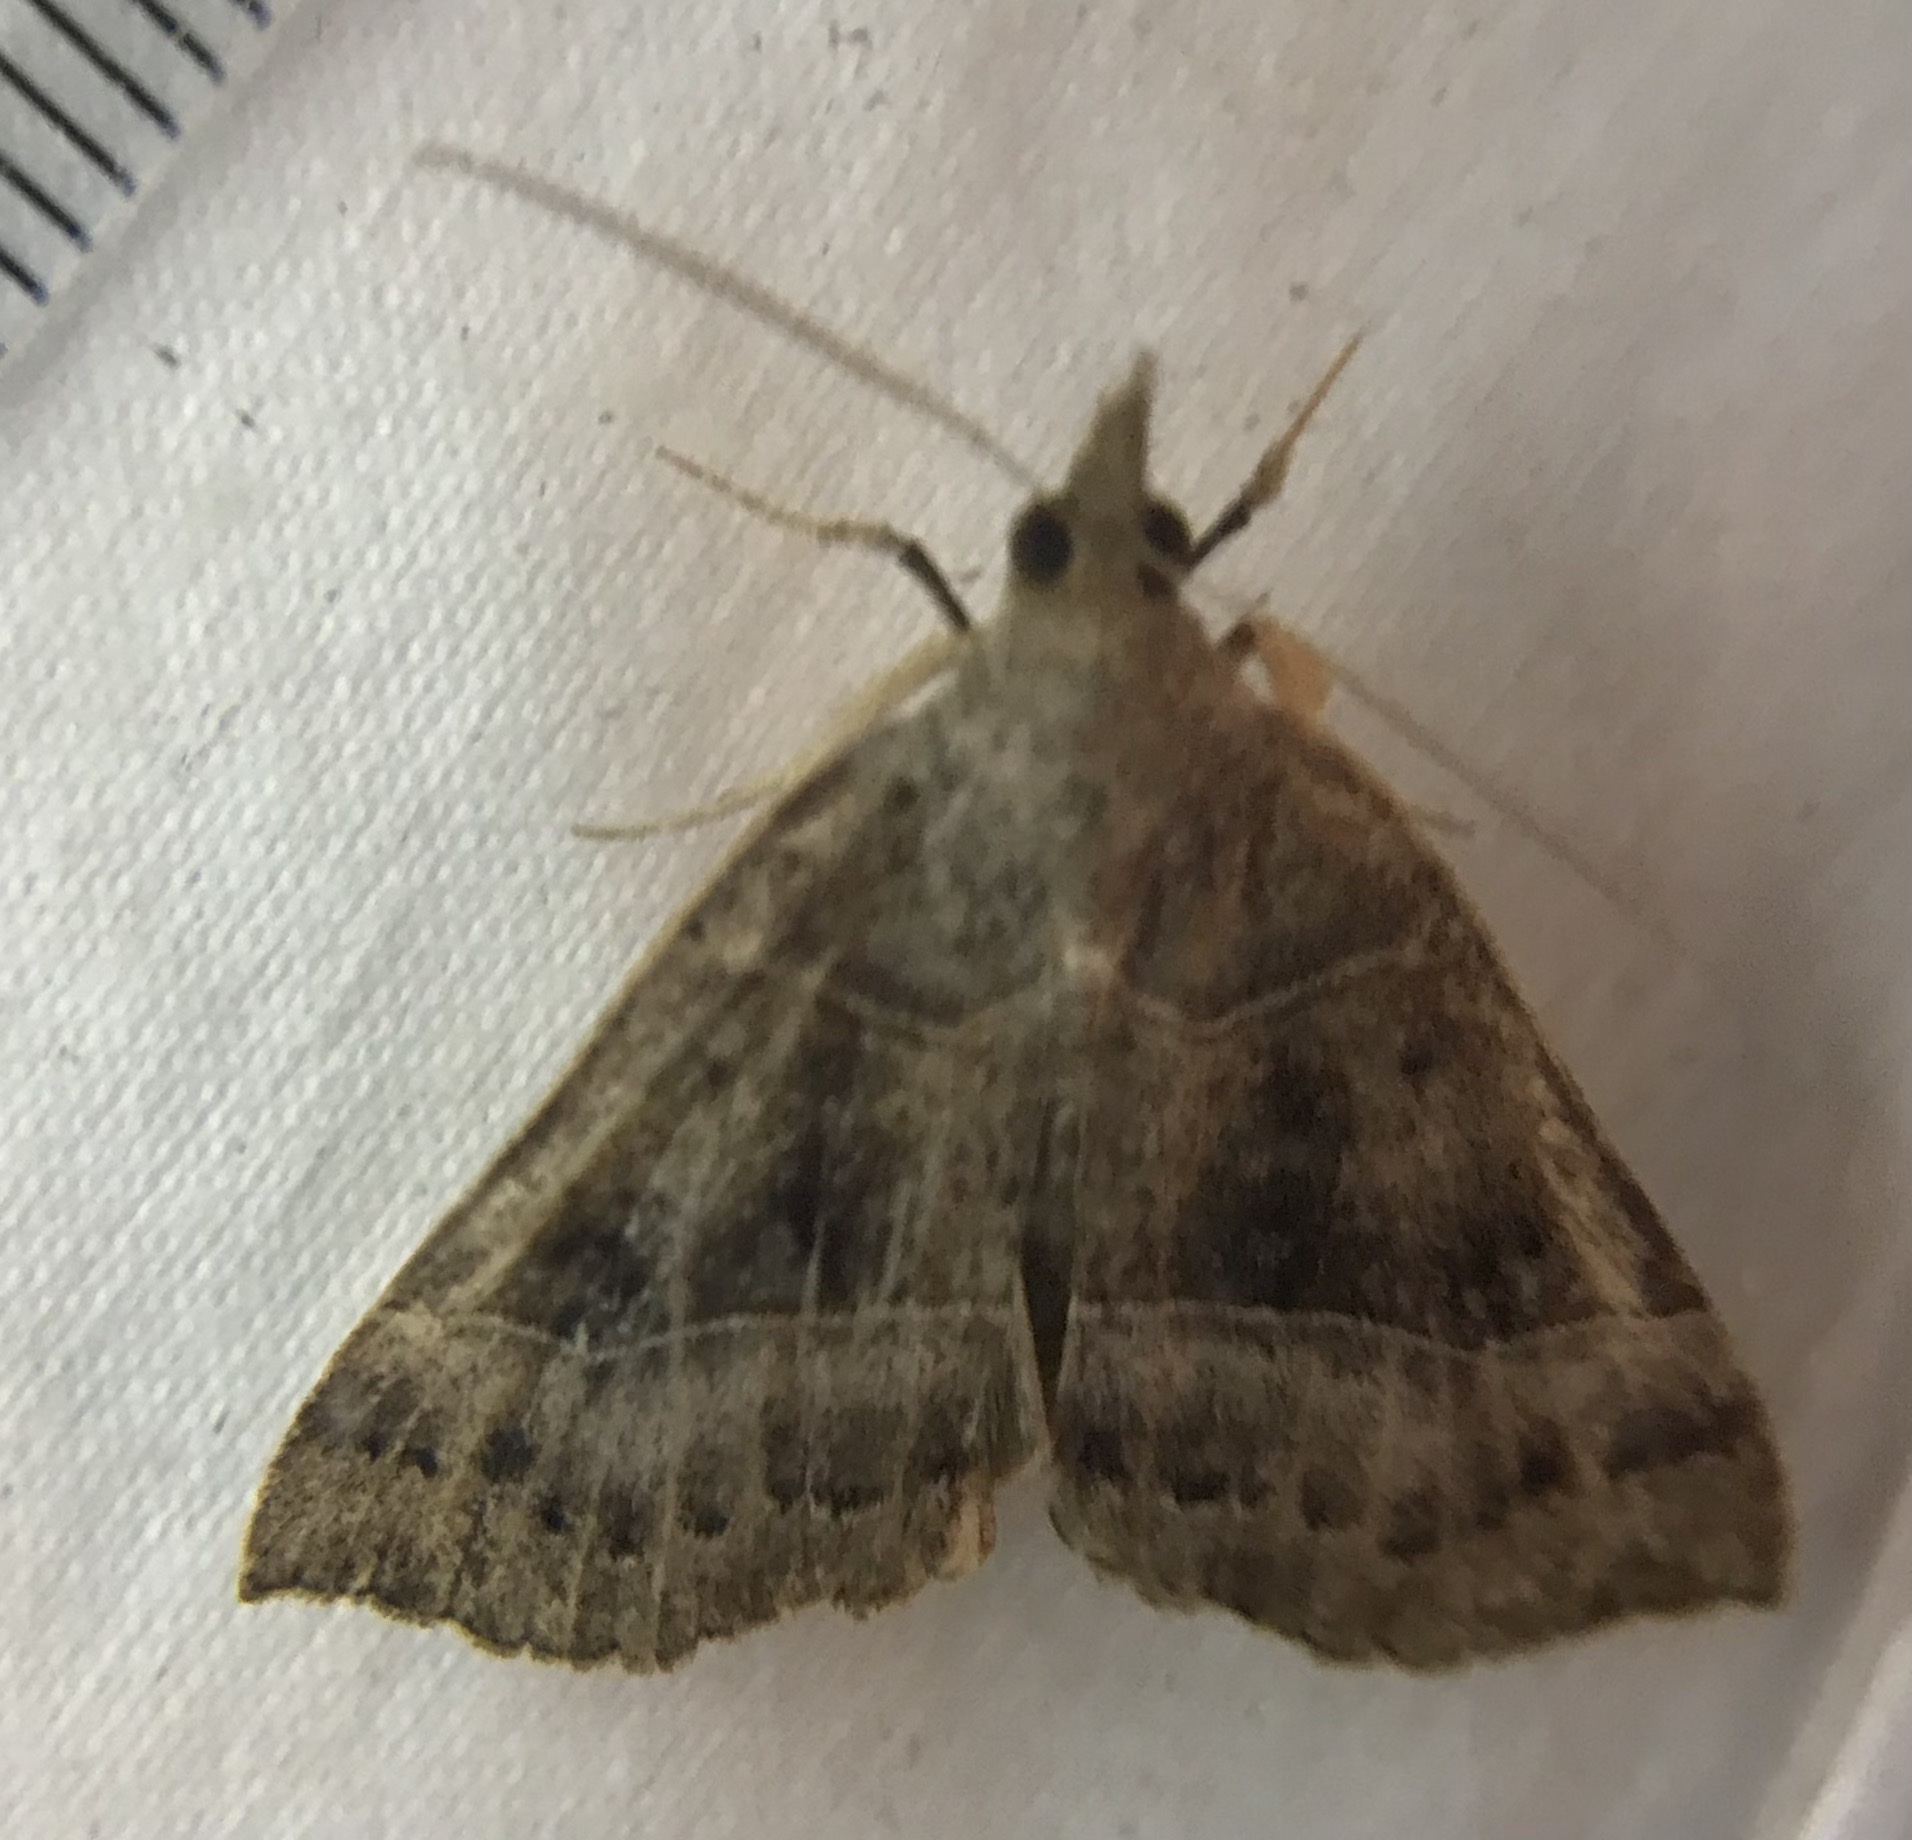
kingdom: Animalia
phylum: Arthropoda
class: Insecta
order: Lepidoptera
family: Erebidae
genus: Hypena
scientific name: Hypena deceptalis
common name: Deceptive snout
